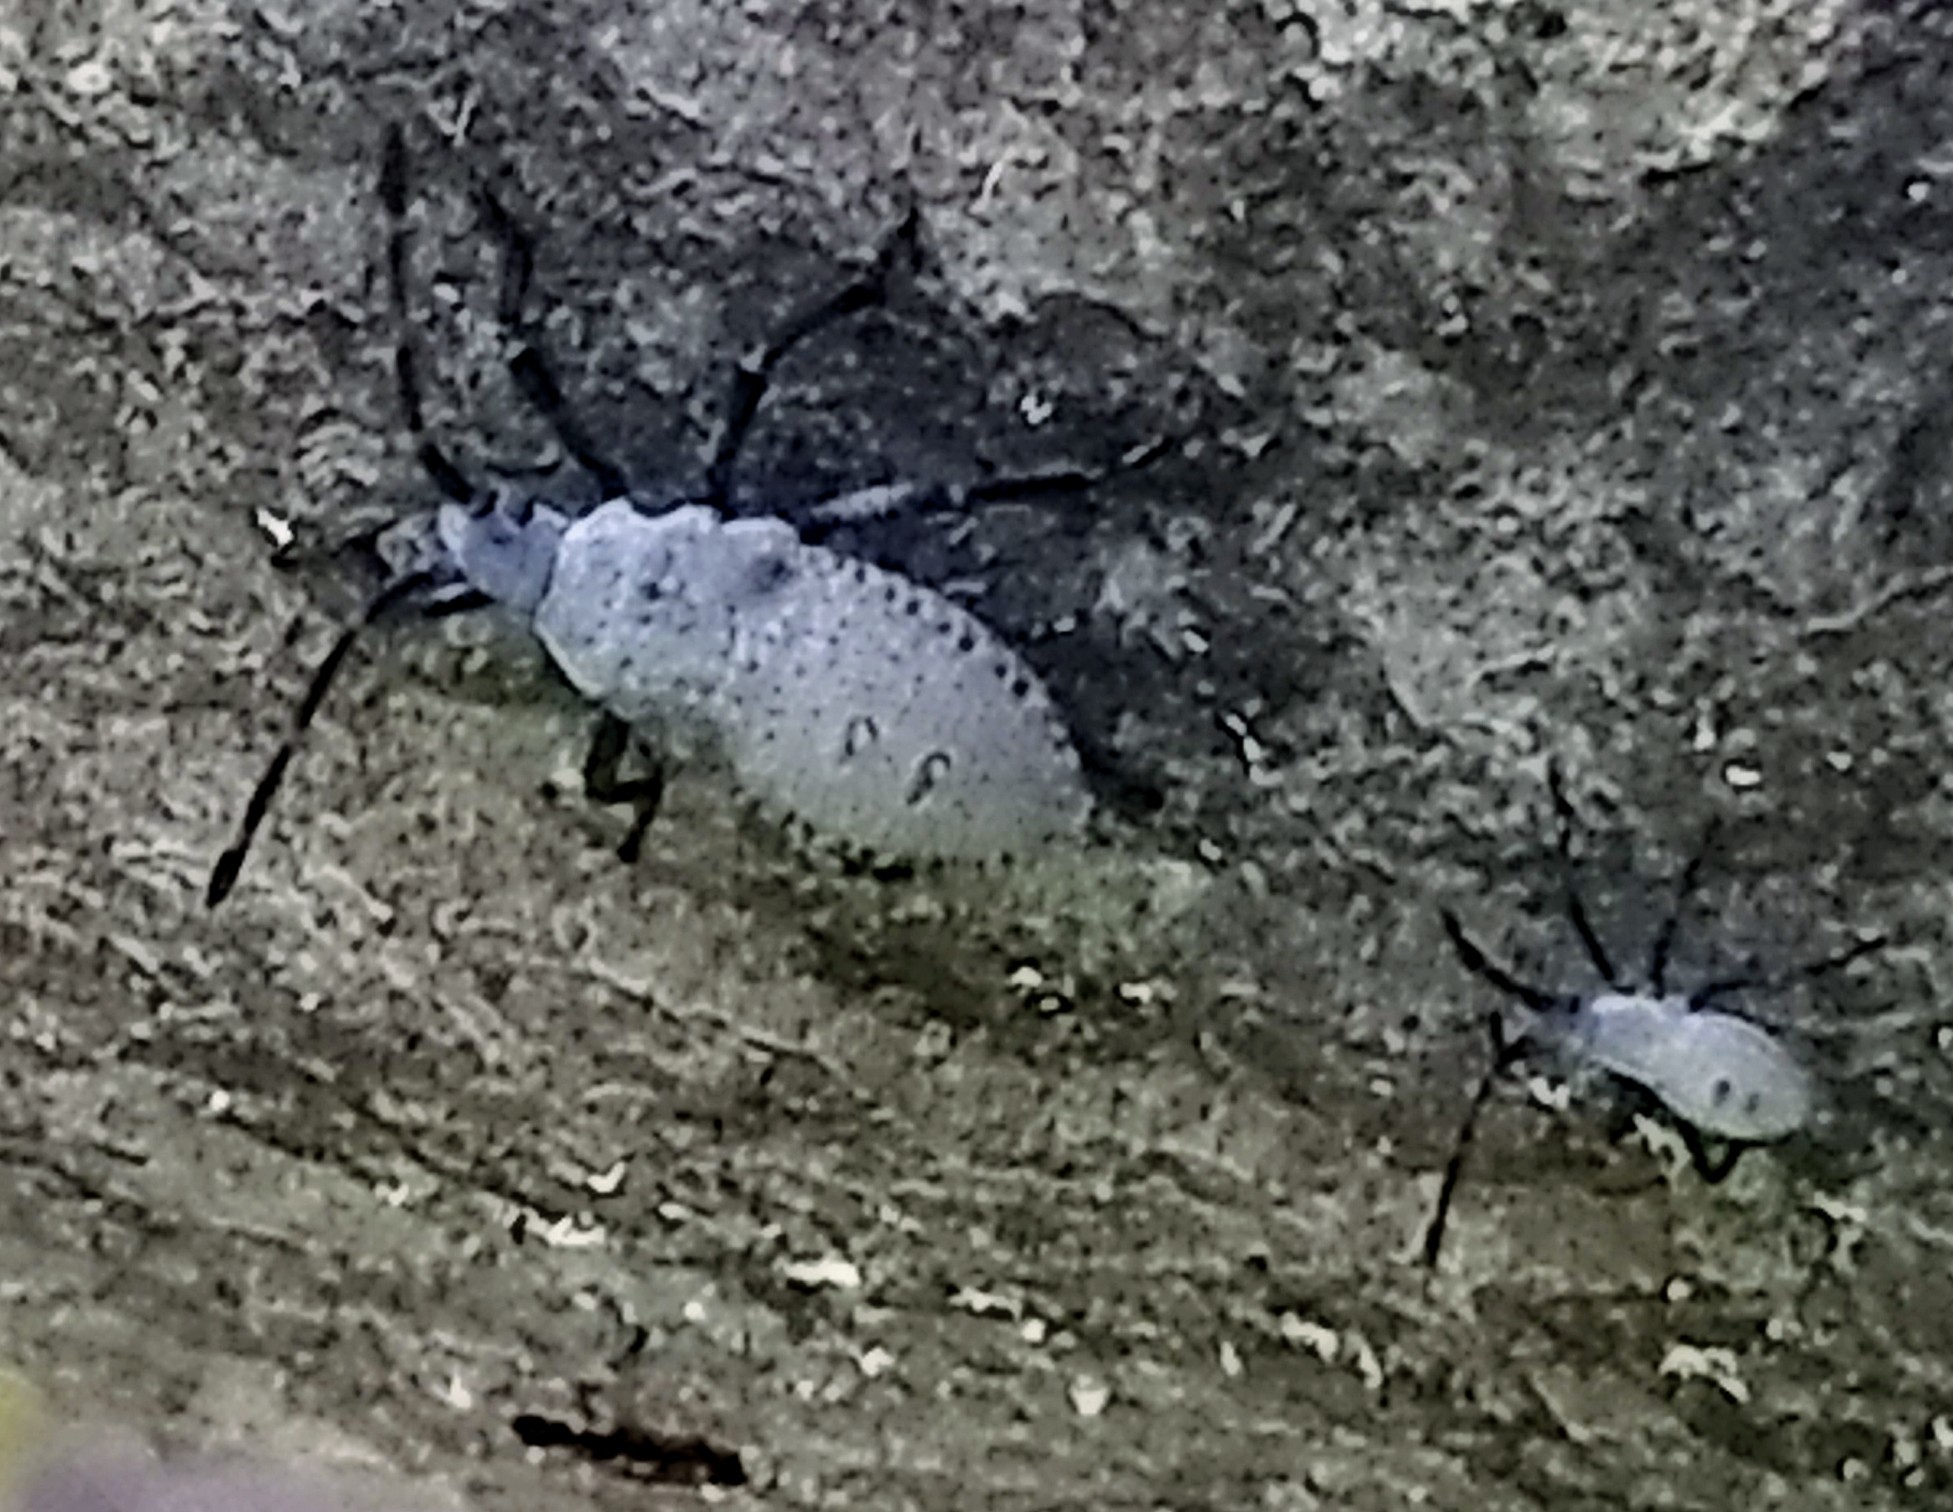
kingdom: Animalia
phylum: Arthropoda
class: Insecta
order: Hemiptera
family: Coreidae
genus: Anasa
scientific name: Anasa tristis
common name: Squash bug
